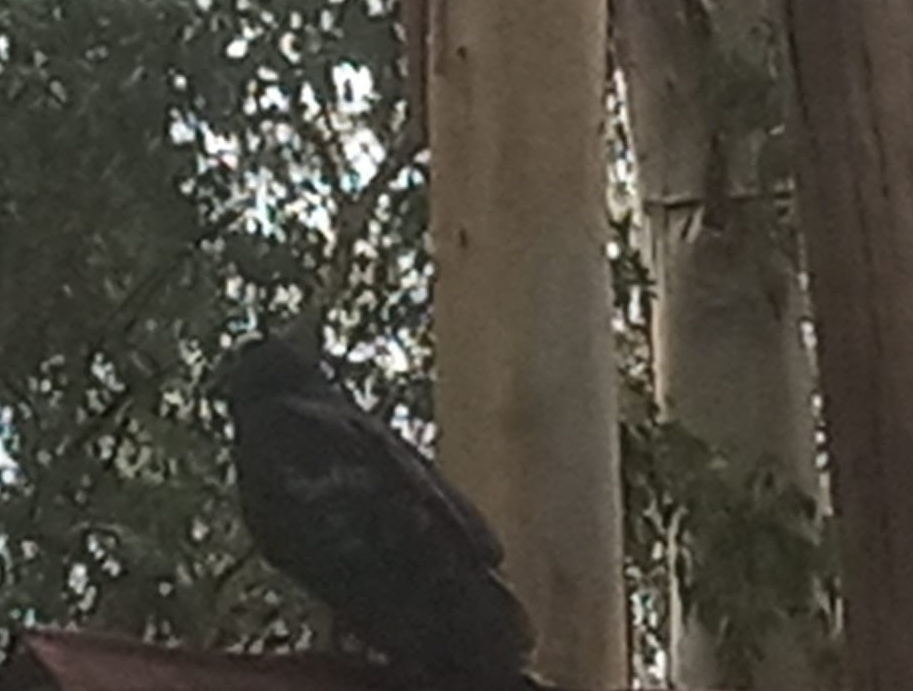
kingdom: Animalia
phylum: Chordata
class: Aves
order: Accipitriformes
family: Cathartidae
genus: Cathartes
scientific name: Cathartes aura
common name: Turkey vulture
